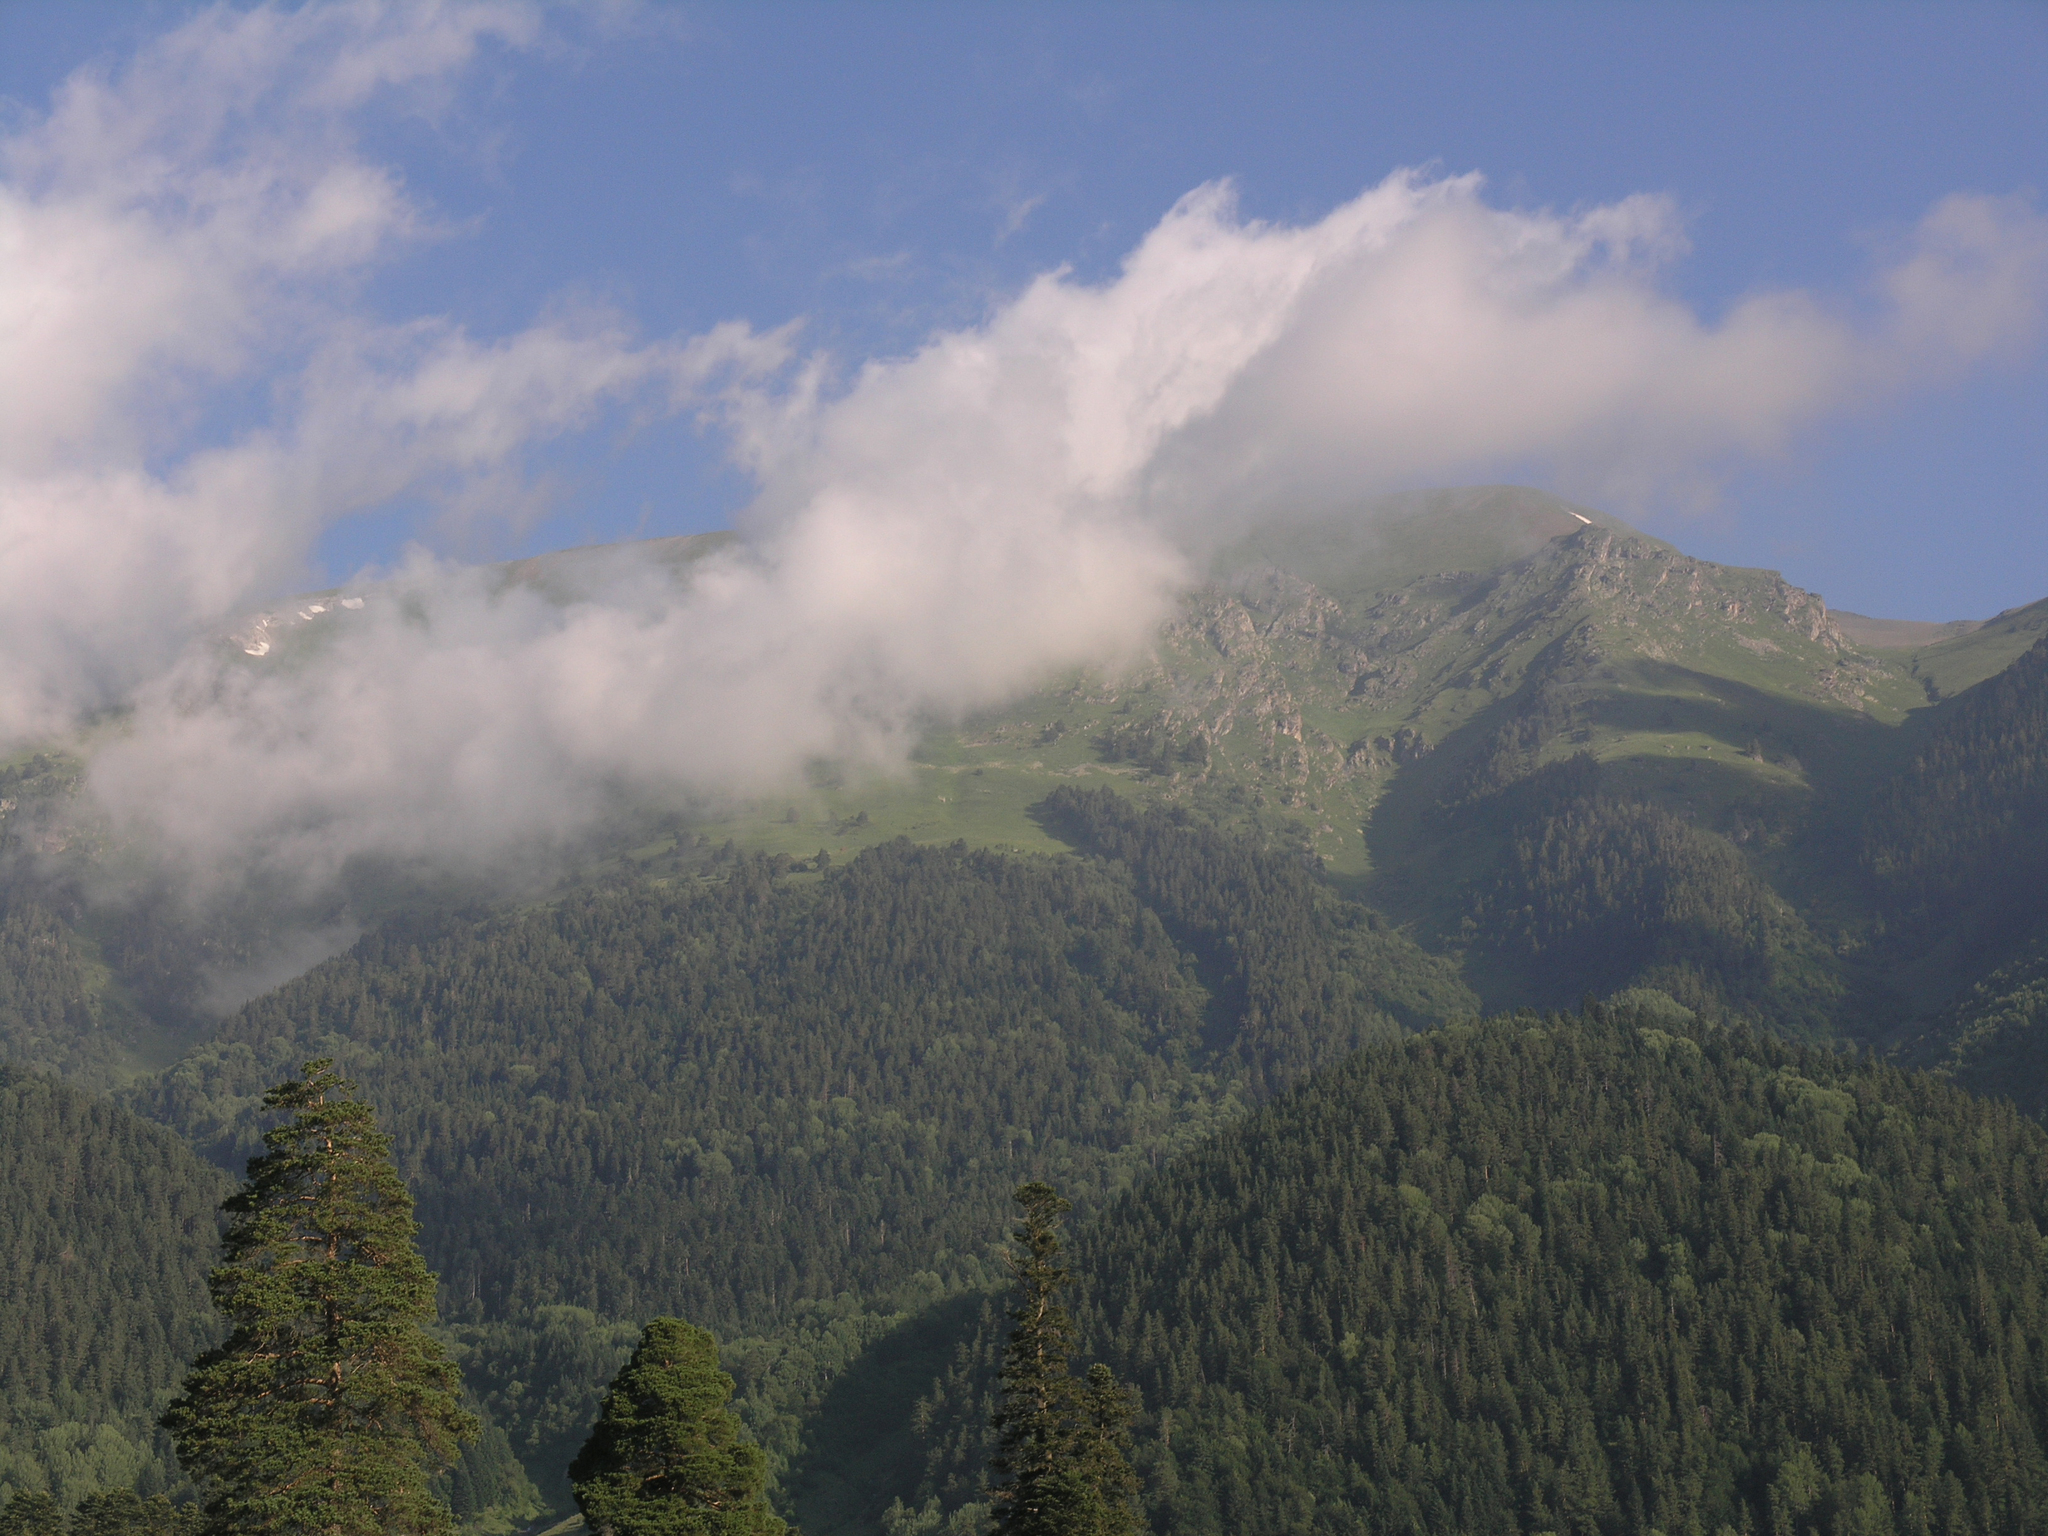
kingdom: Plantae
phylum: Tracheophyta
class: Pinopsida
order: Pinales
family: Pinaceae
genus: Pinus
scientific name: Pinus sylvestris
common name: Scots pine
